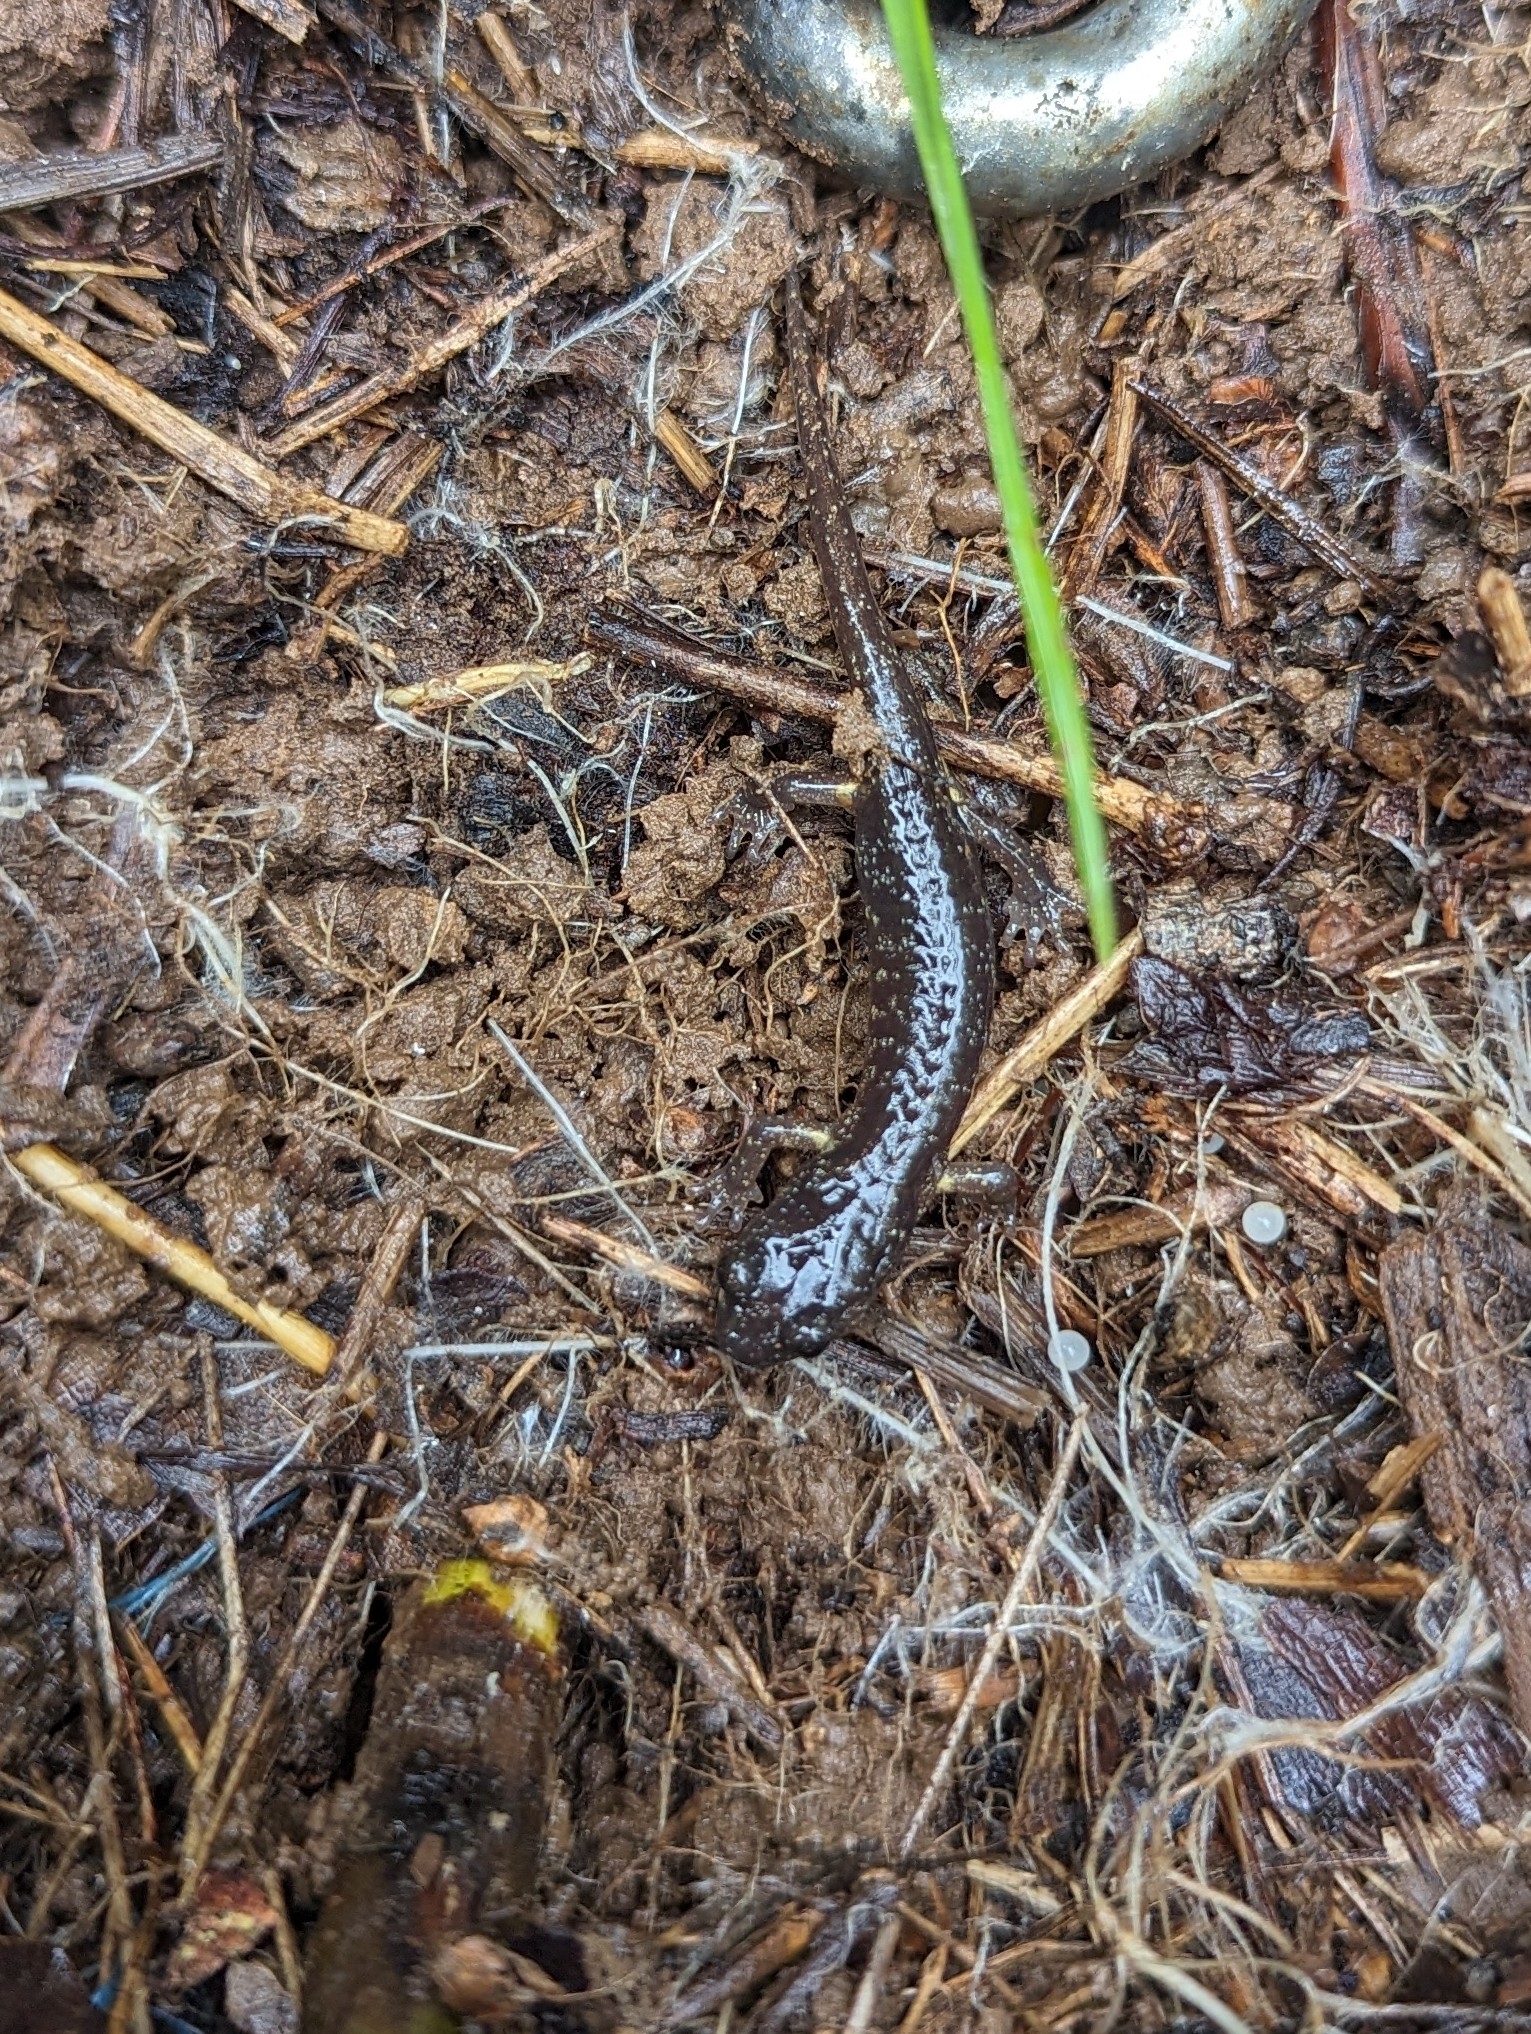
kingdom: Animalia
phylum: Chordata
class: Amphibia
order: Caudata
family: Plethodontidae
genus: Aneides
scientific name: Aneides lugubris
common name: Arboreal salamander
